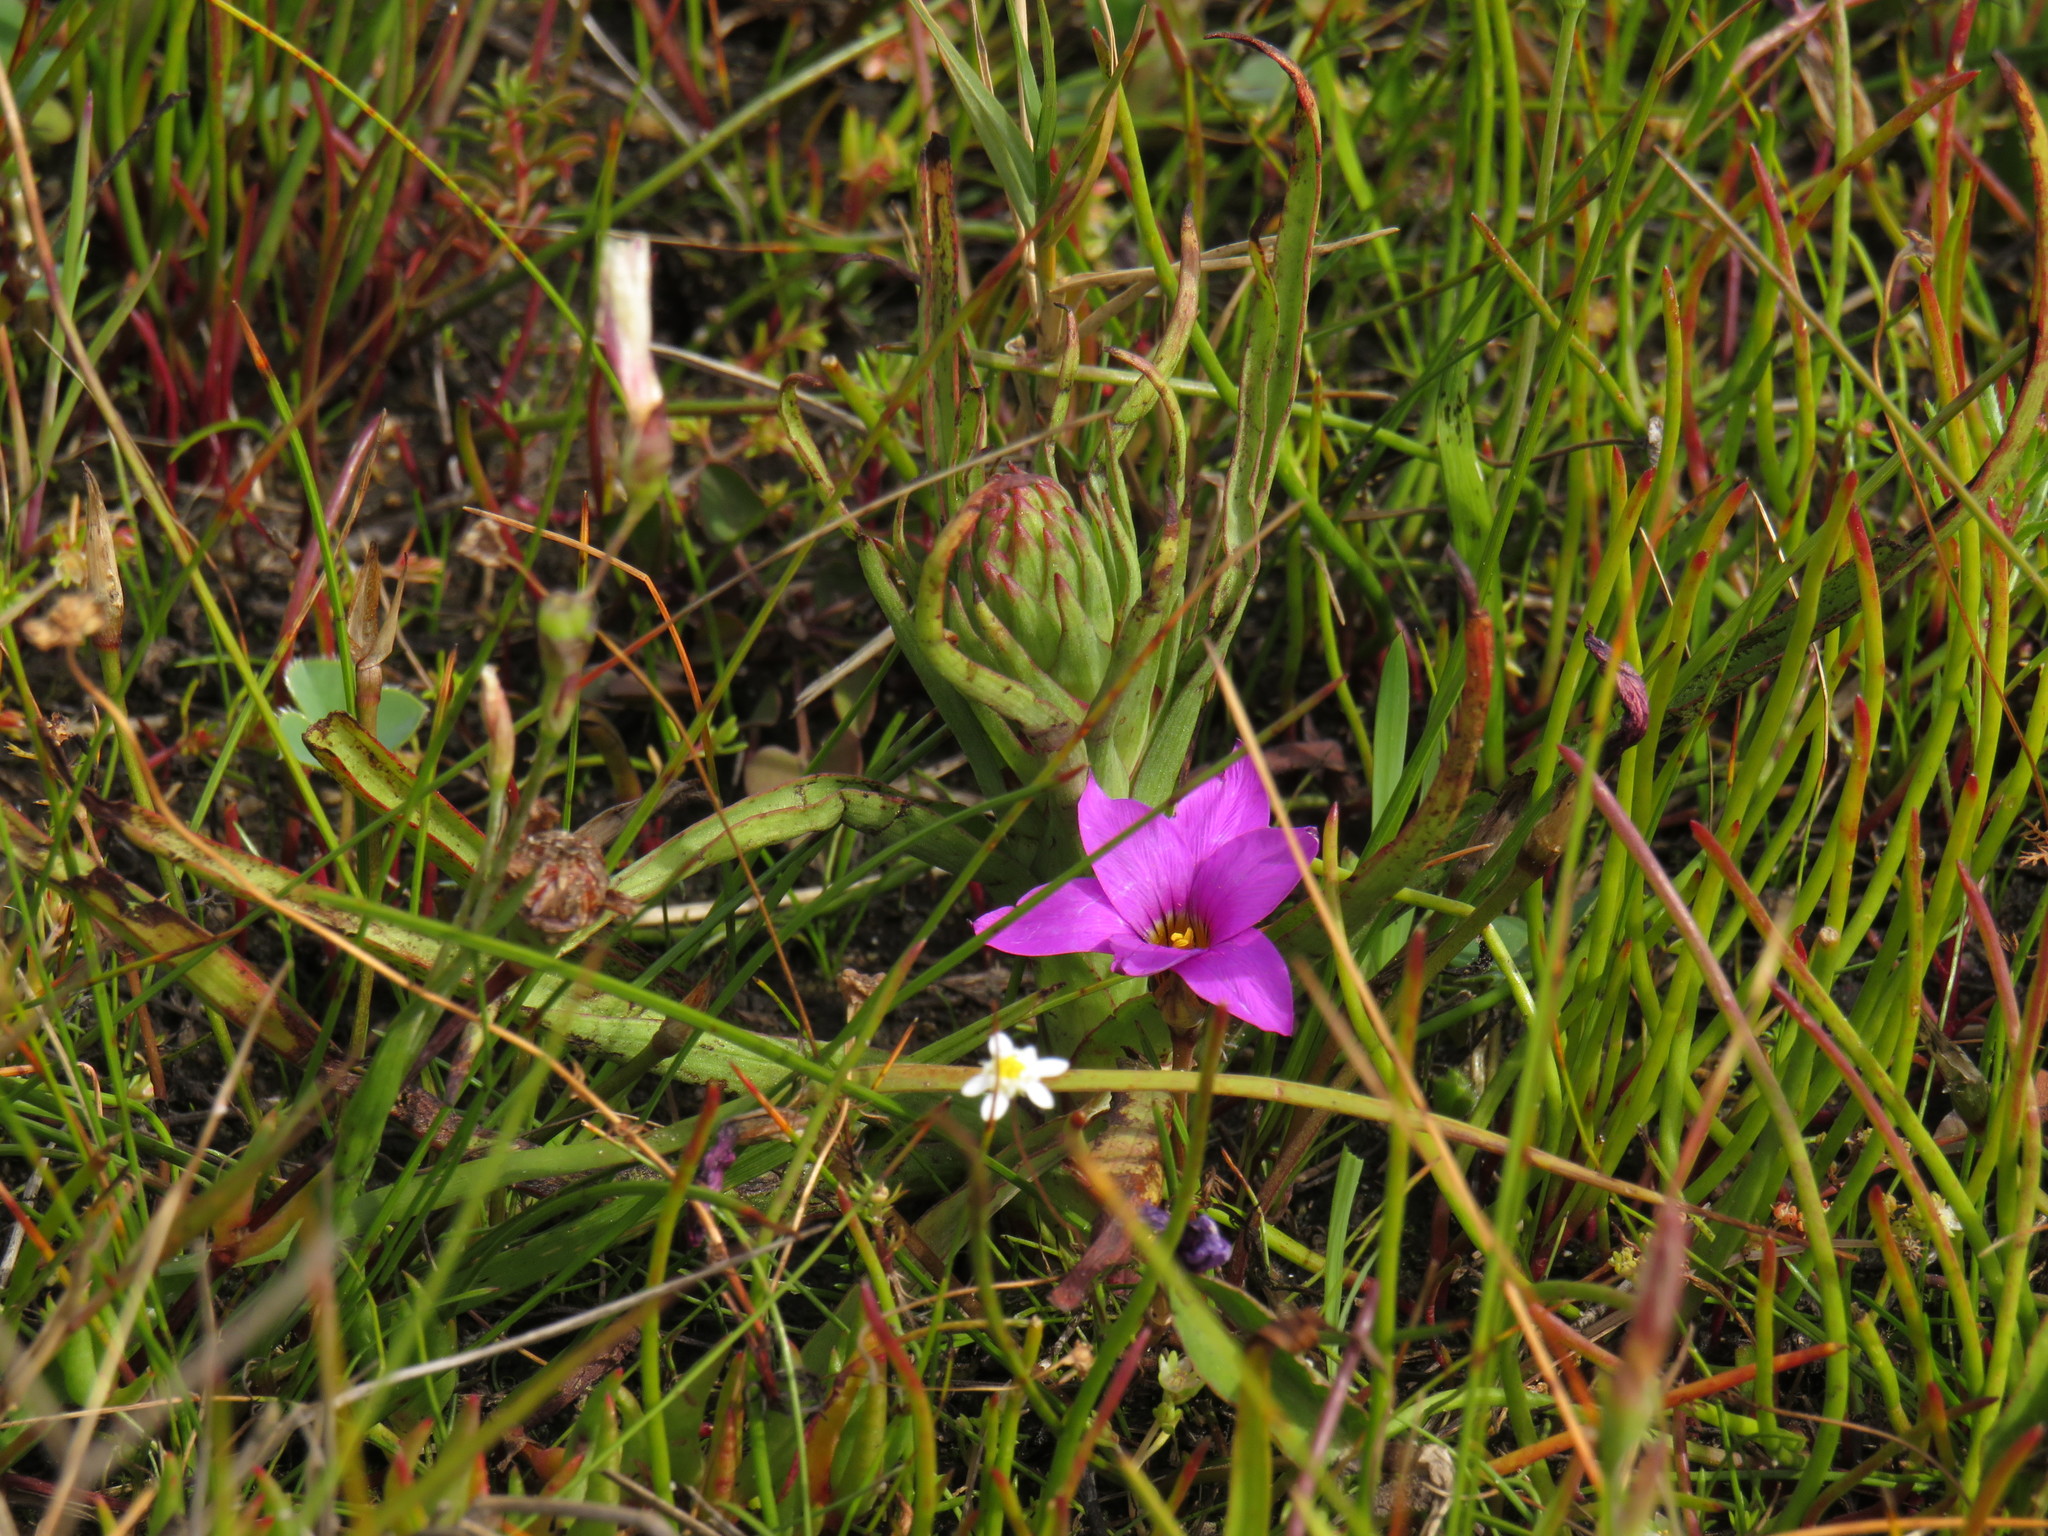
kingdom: Plantae
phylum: Tracheophyta
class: Liliopsida
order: Asparagales
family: Orchidaceae
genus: Disa
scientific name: Disa bracteata
